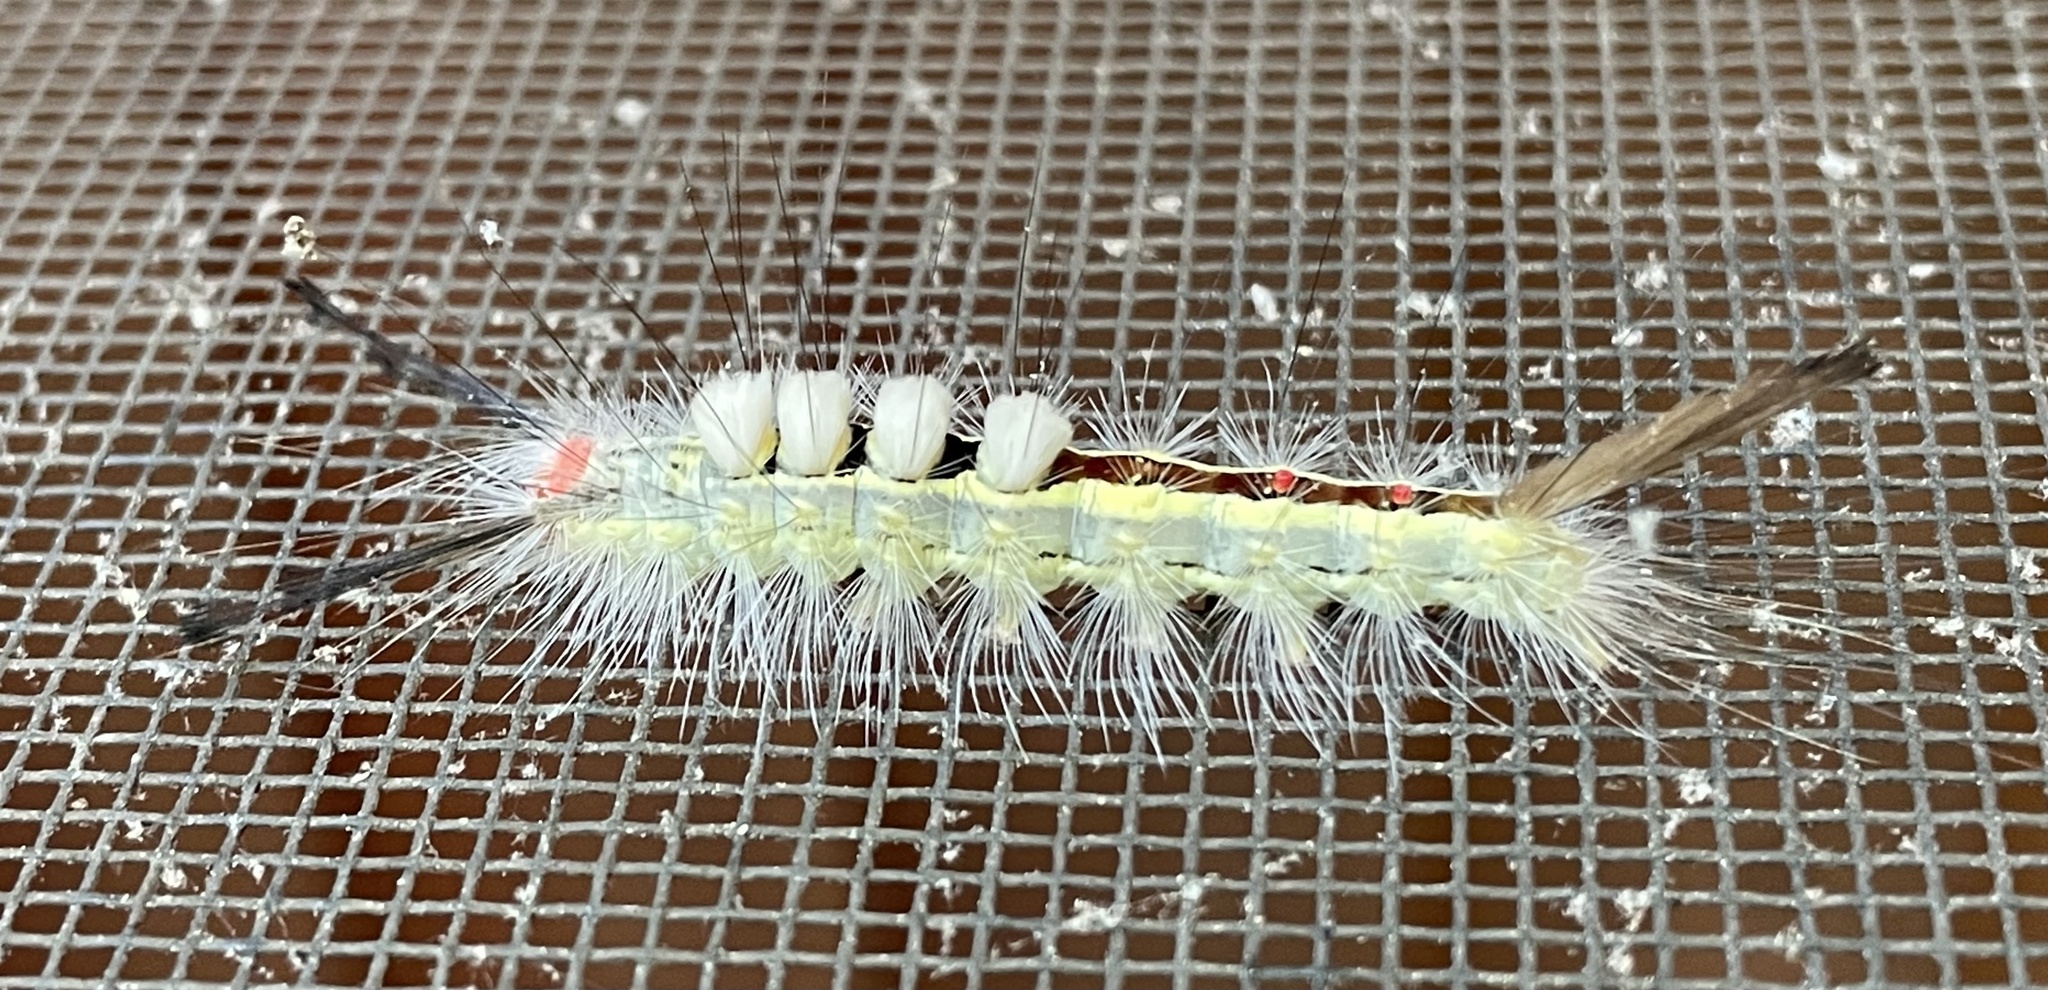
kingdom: Animalia
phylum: Arthropoda
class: Insecta
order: Lepidoptera
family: Erebidae
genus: Orgyia
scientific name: Orgyia leucostigma
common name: White-marked tussock moth
